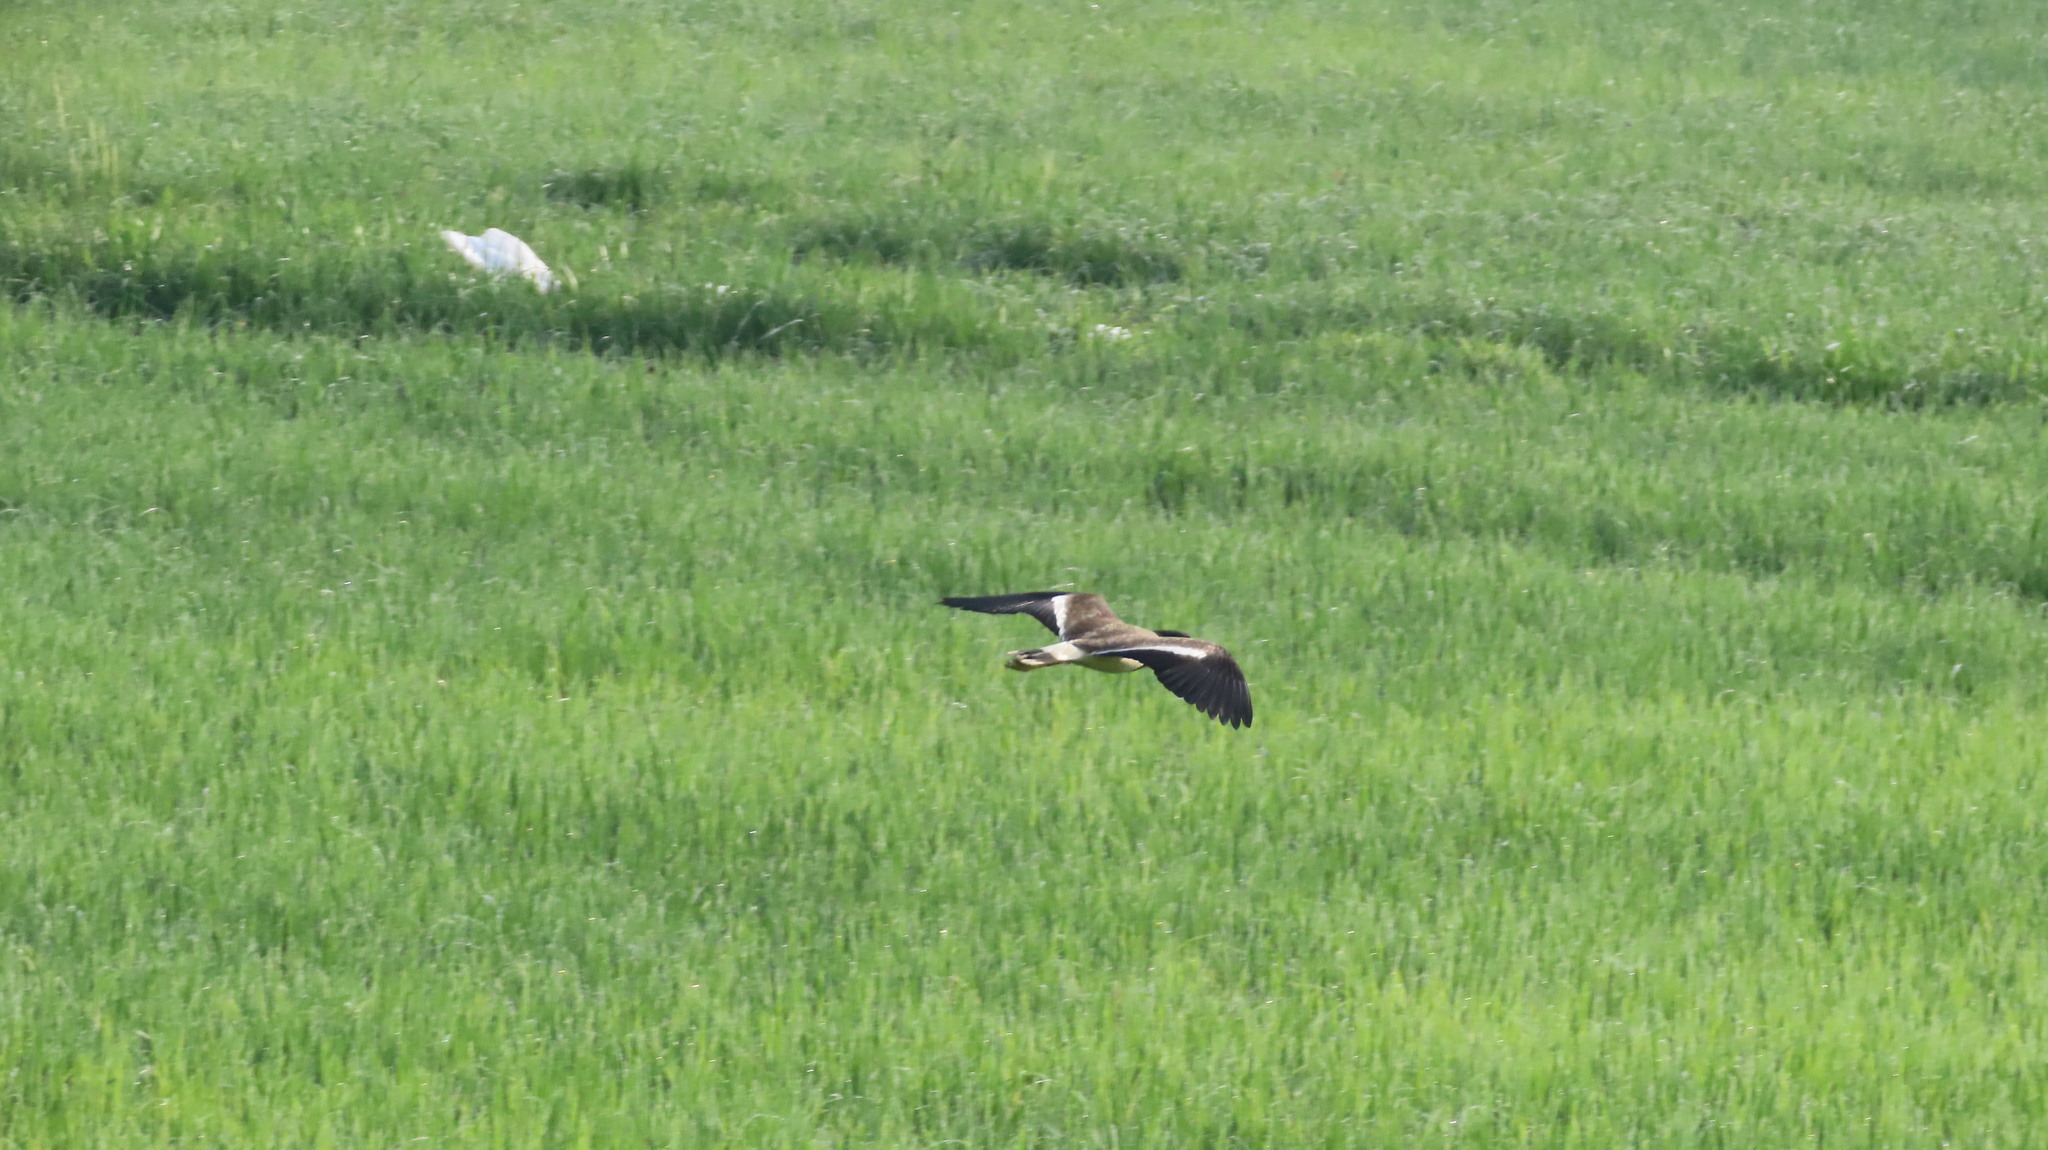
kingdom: Animalia
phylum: Chordata
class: Aves
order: Charadriiformes
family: Charadriidae
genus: Vanellus
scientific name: Vanellus indicus
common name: Red-wattled lapwing
